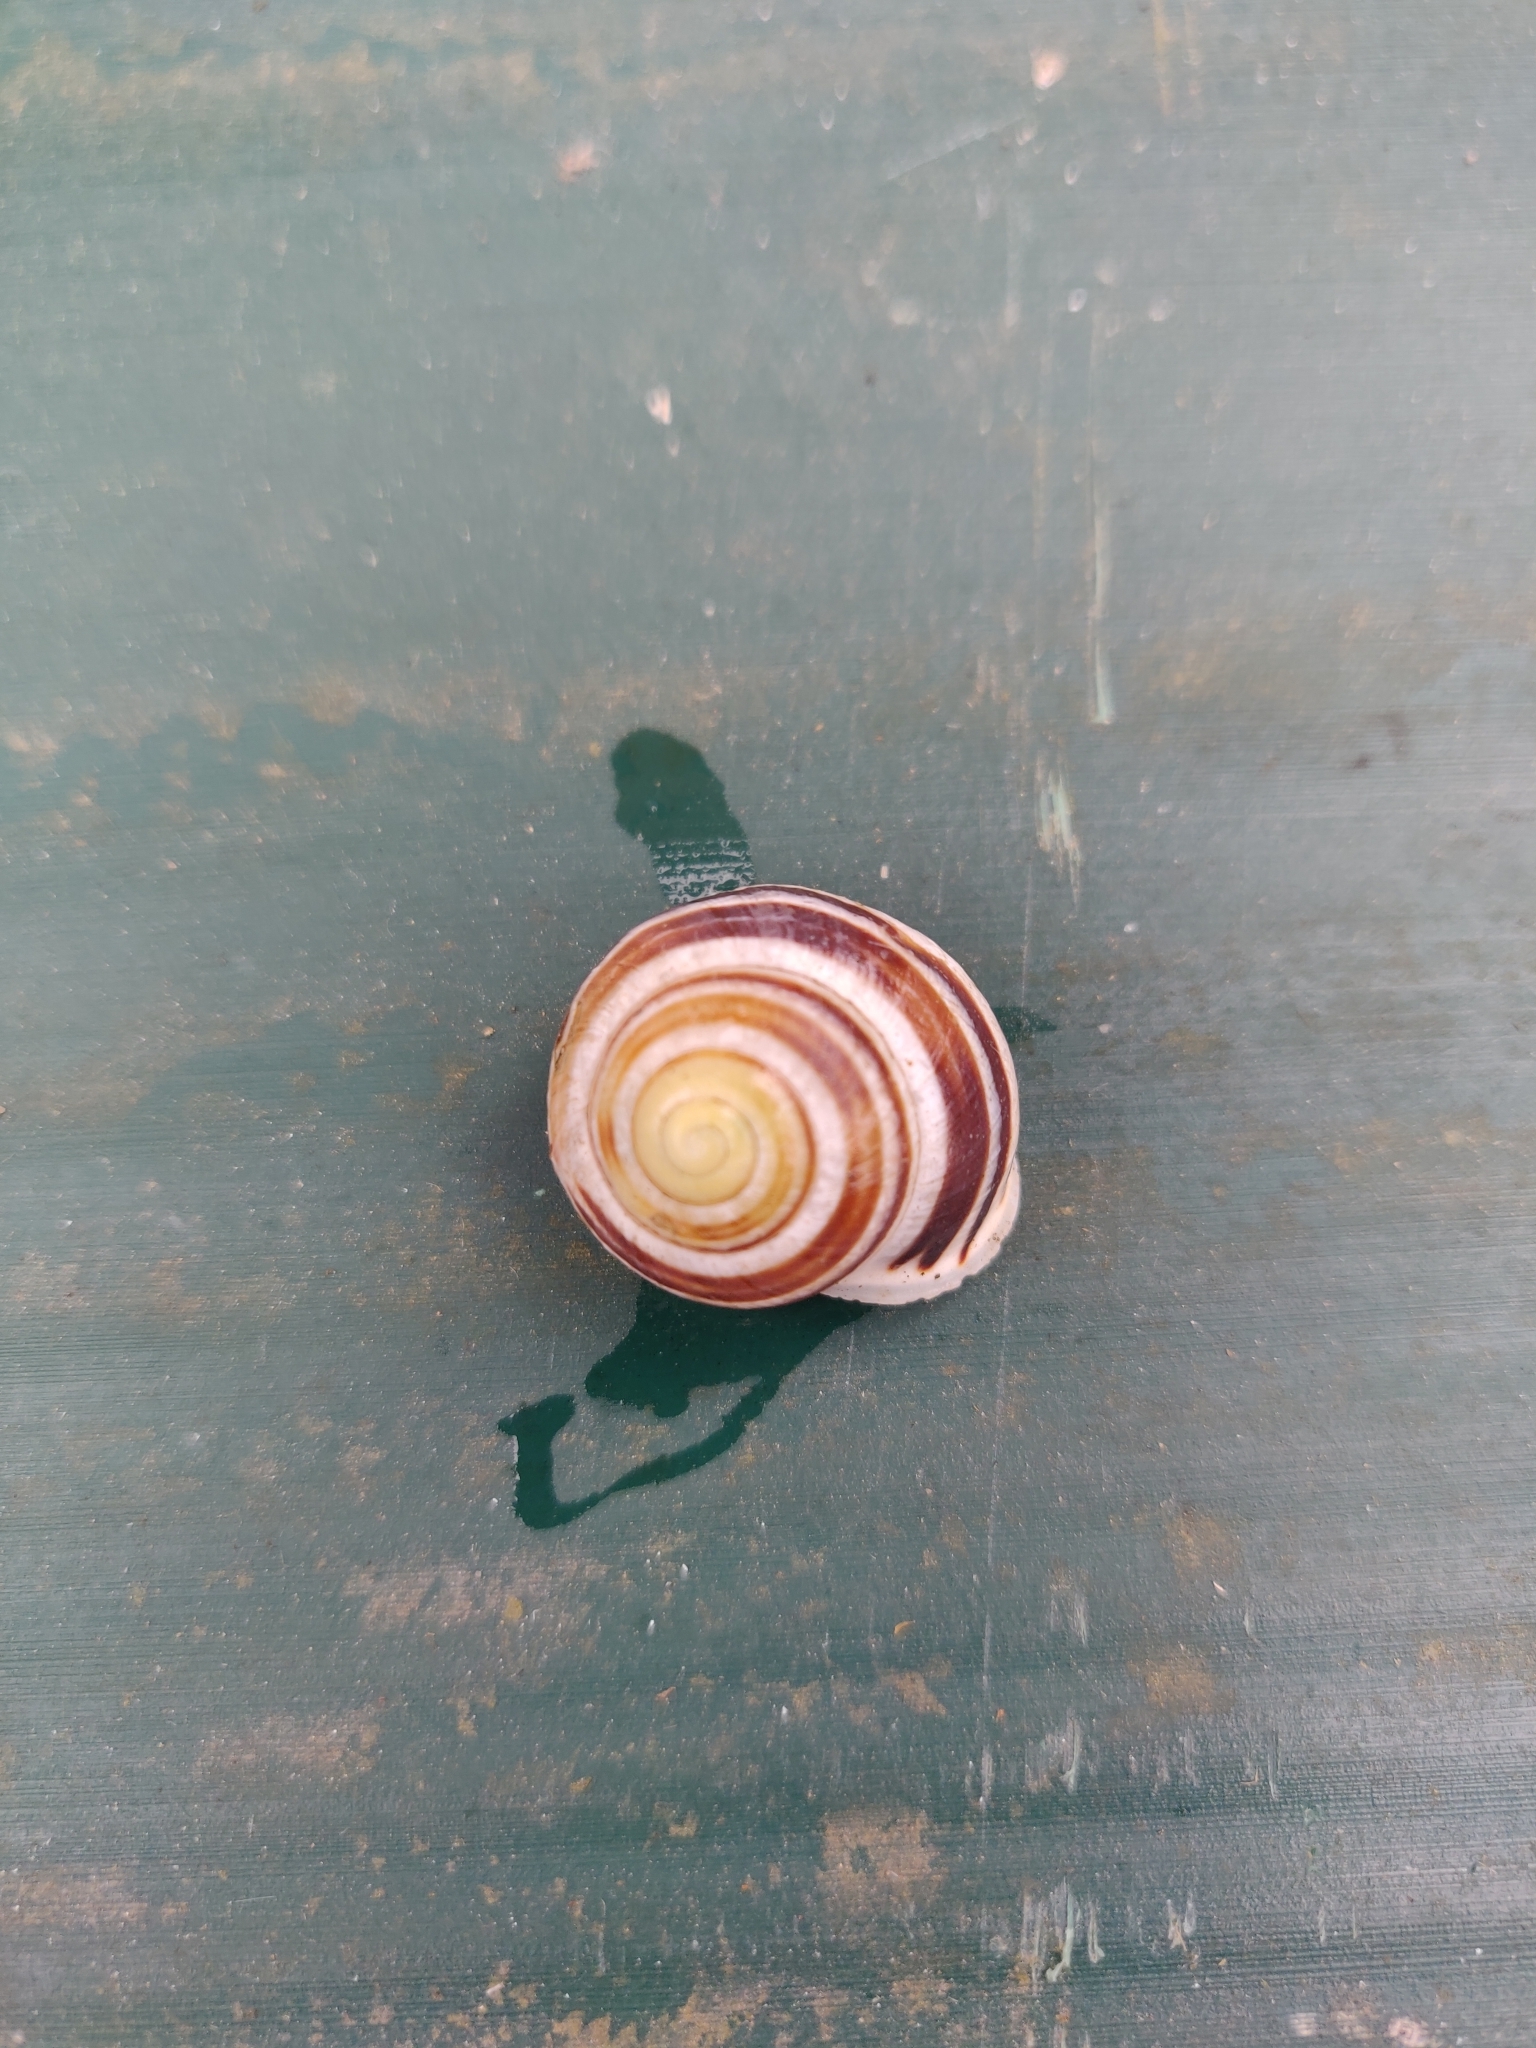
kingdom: Animalia
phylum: Mollusca
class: Gastropoda
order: Stylommatophora
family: Helicidae
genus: Cepaea
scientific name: Cepaea hortensis
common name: White-lip gardensnail
